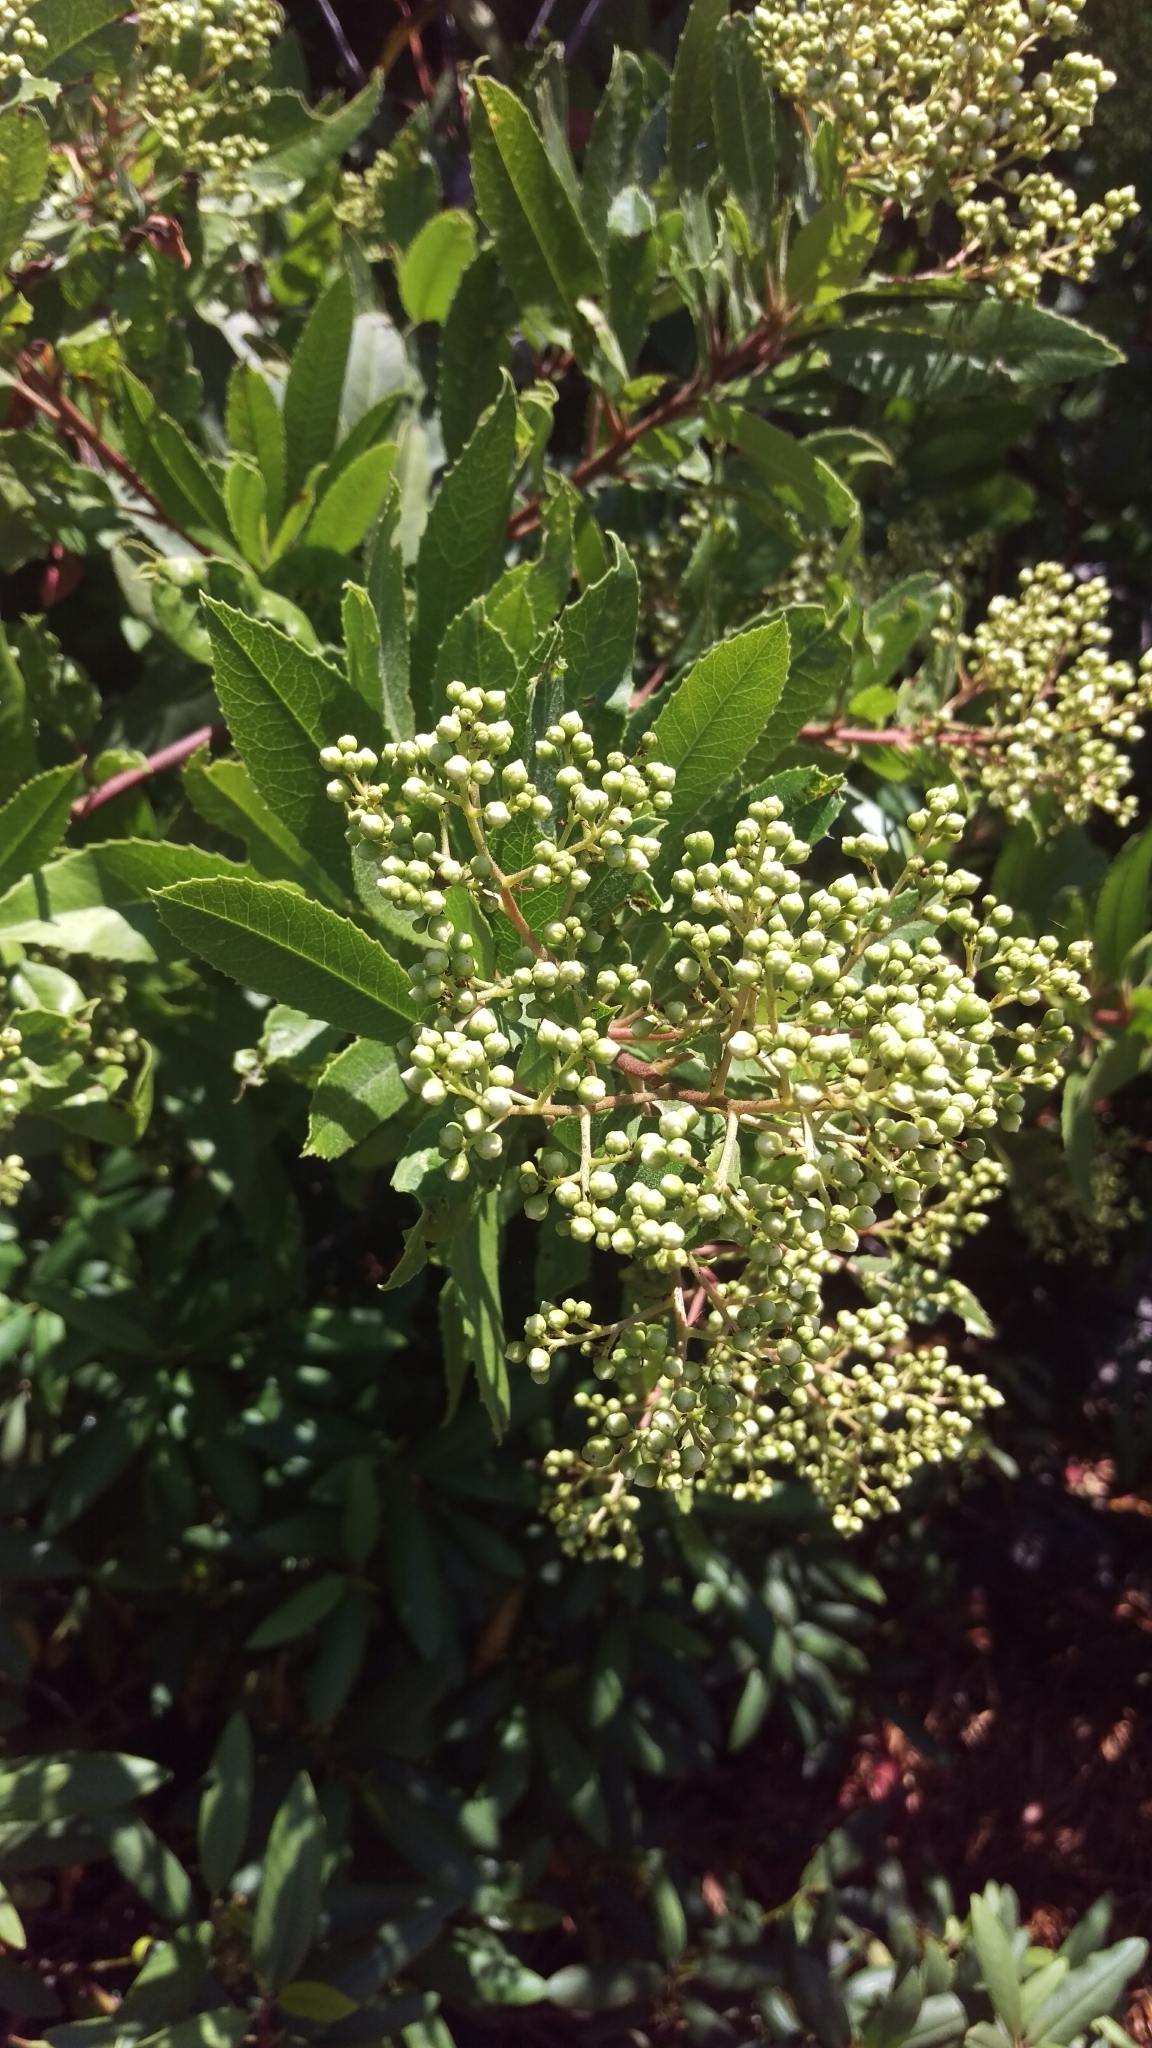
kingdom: Plantae
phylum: Tracheophyta
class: Magnoliopsida
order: Rosales
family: Rosaceae
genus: Heteromeles
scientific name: Heteromeles arbutifolia
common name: California-holly
